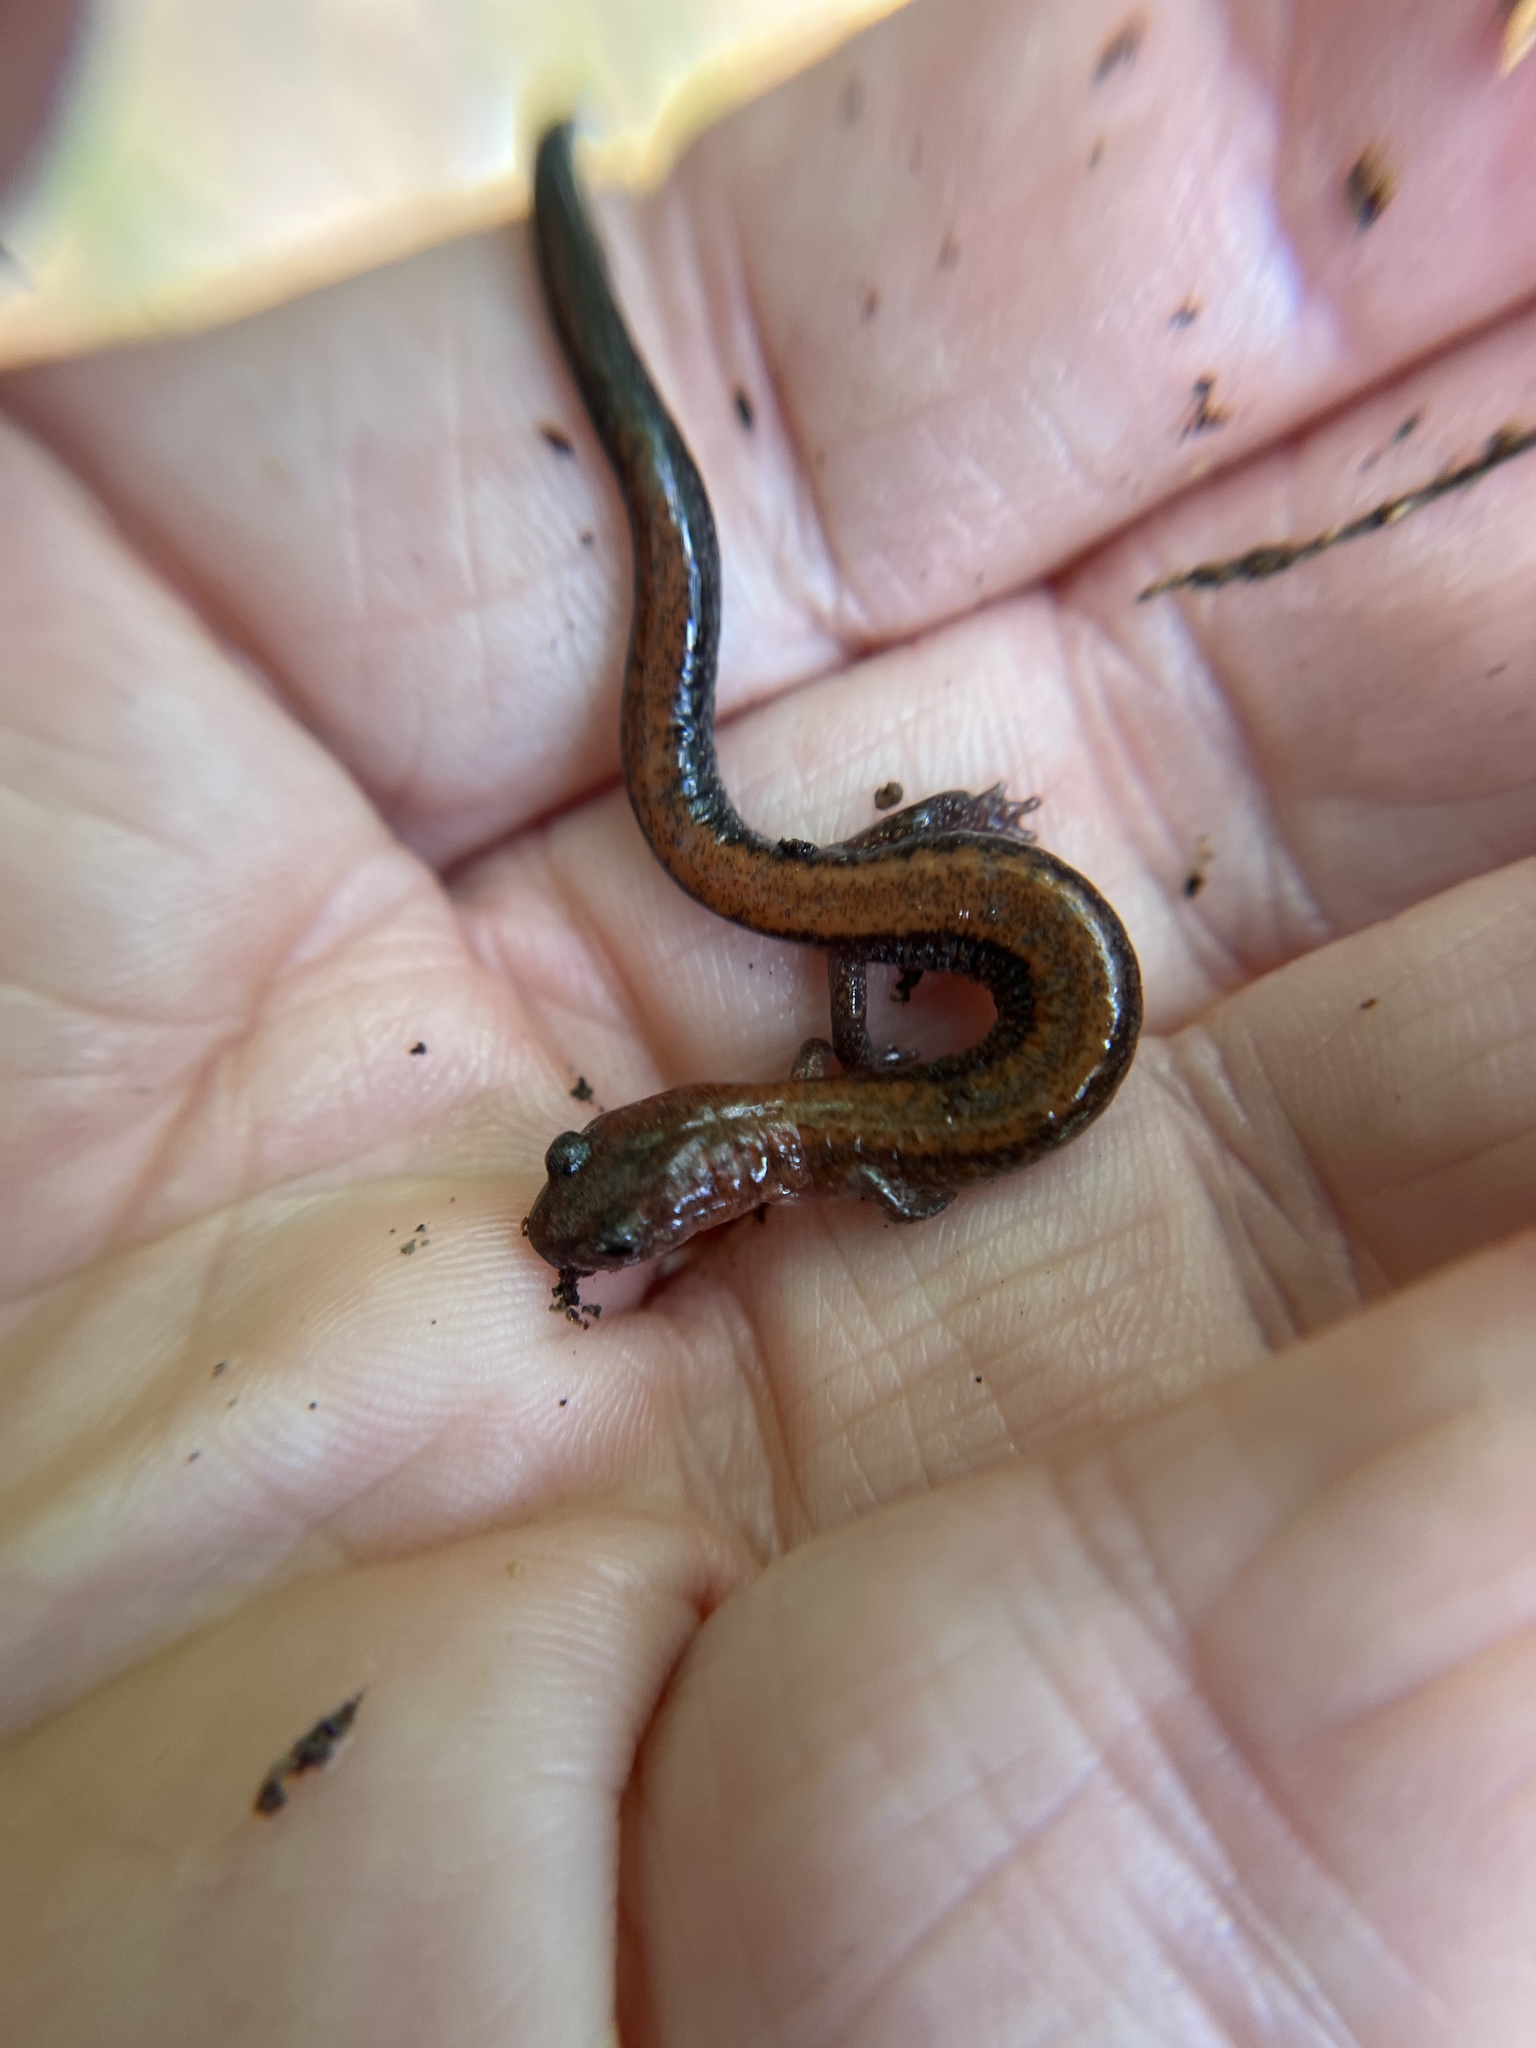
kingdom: Animalia
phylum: Chordata
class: Amphibia
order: Caudata
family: Plethodontidae
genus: Plethodon
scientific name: Plethodon cinereus
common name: Redback salamander
